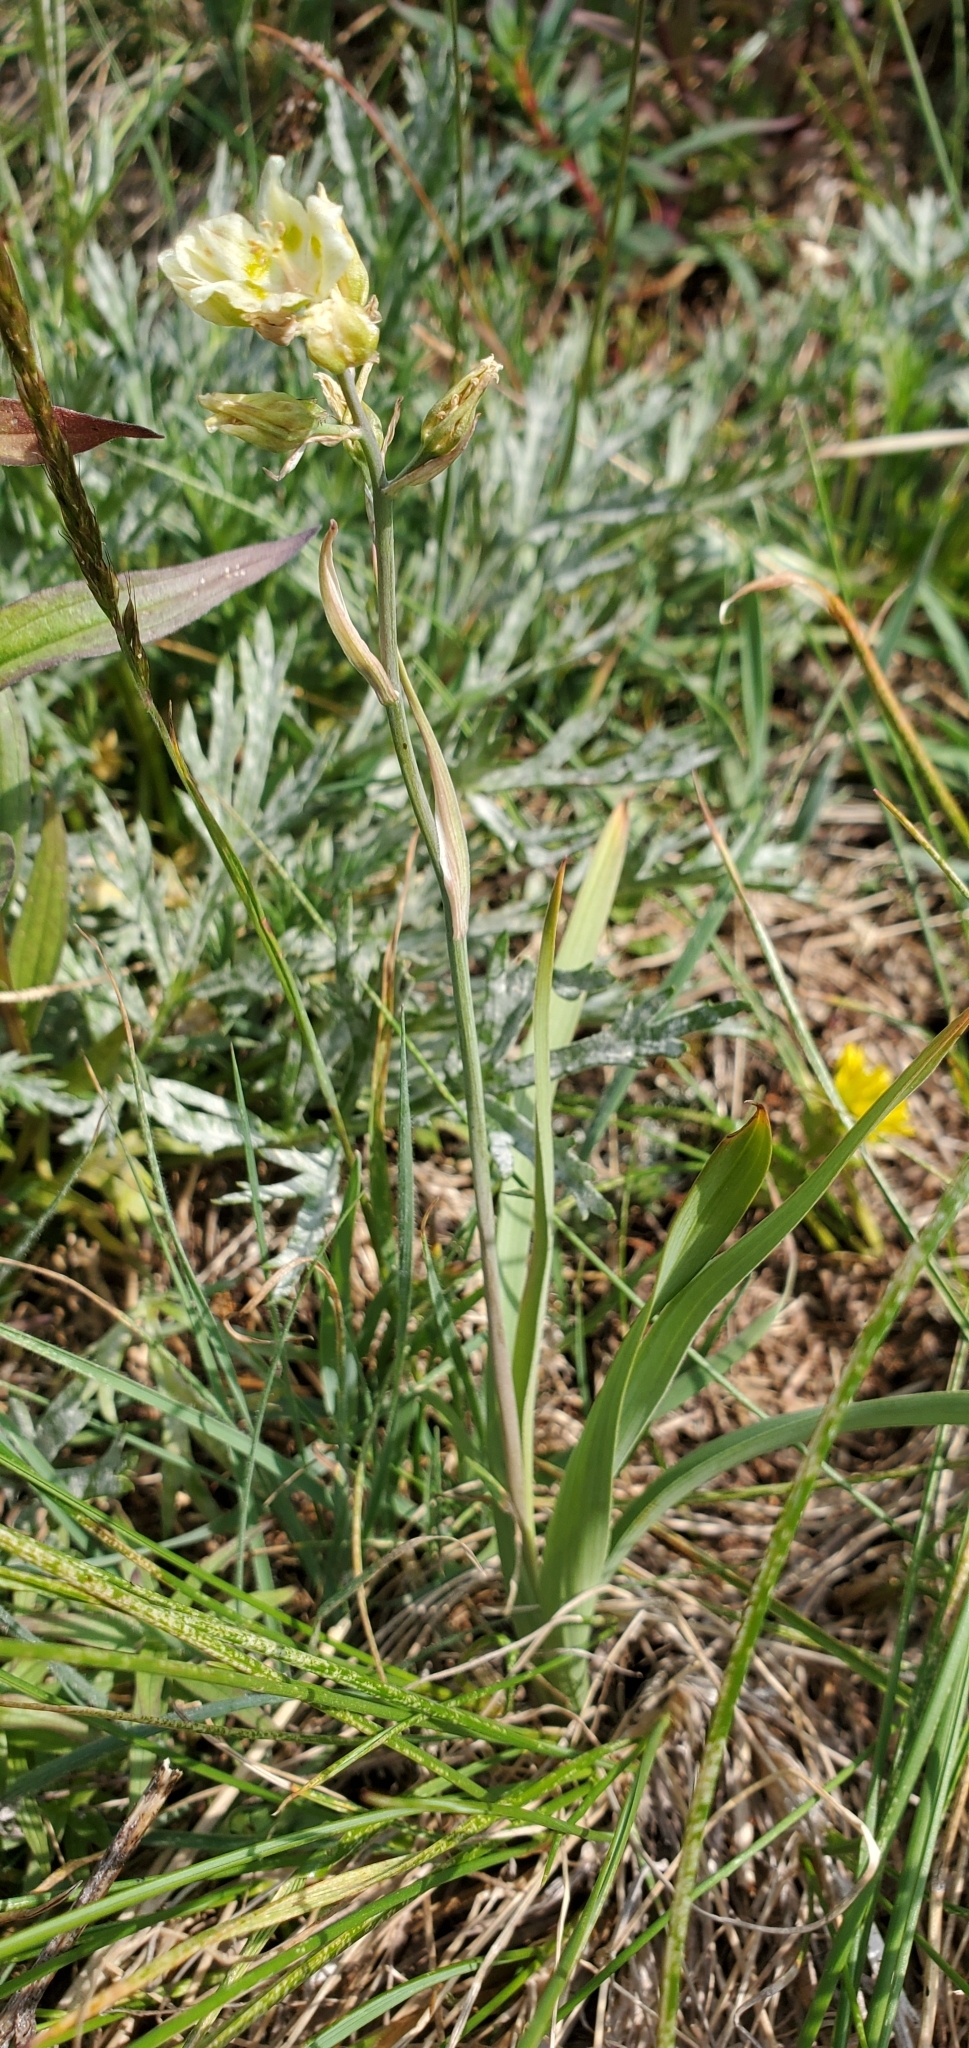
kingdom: Plantae
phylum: Tracheophyta
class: Liliopsida
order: Liliales
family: Melanthiaceae
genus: Anticlea
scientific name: Anticlea elegans
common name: Mountain death camas
